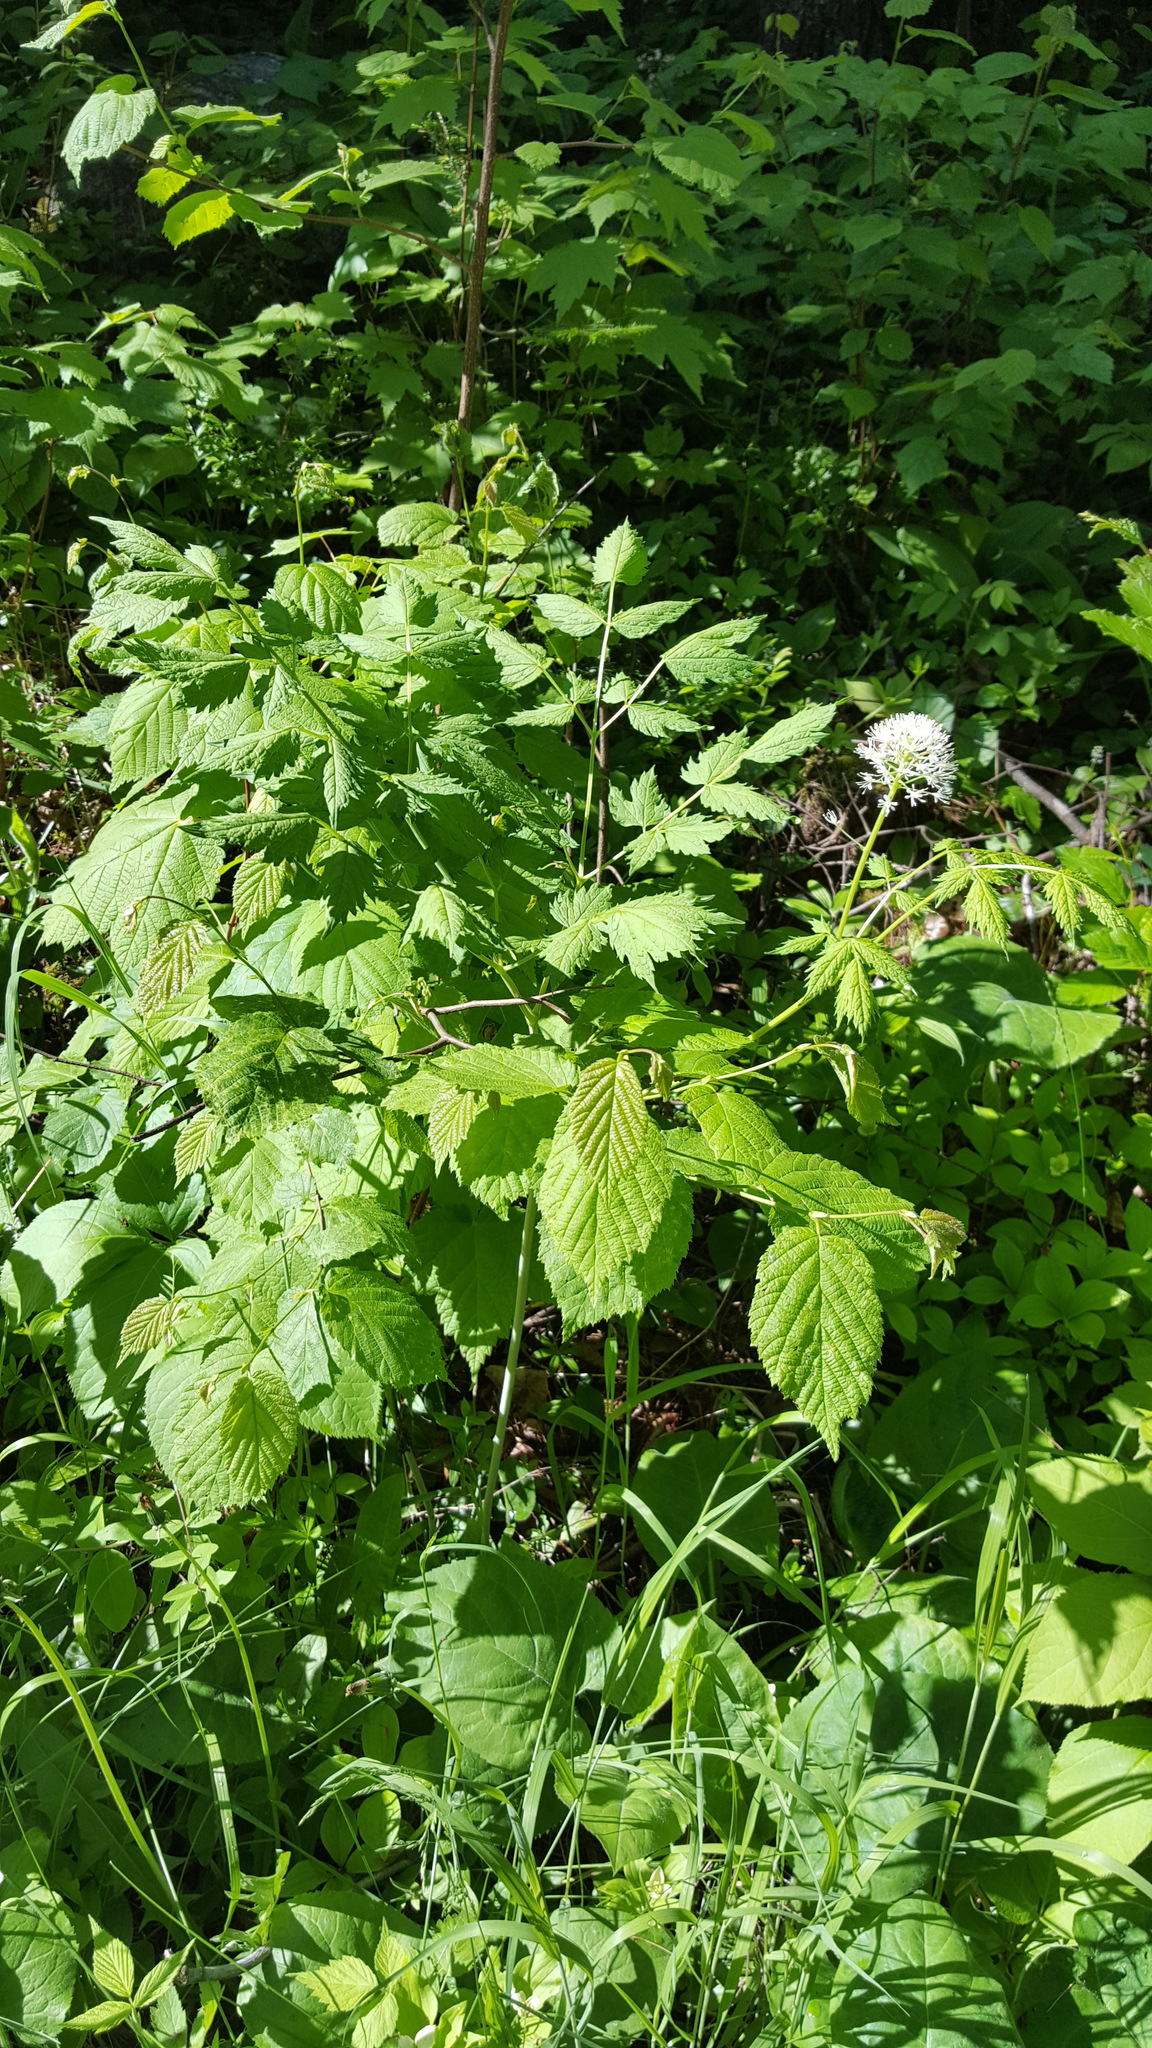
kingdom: Plantae
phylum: Tracheophyta
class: Magnoliopsida
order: Ranunculales
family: Ranunculaceae
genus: Actaea
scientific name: Actaea rubra
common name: Red baneberry
